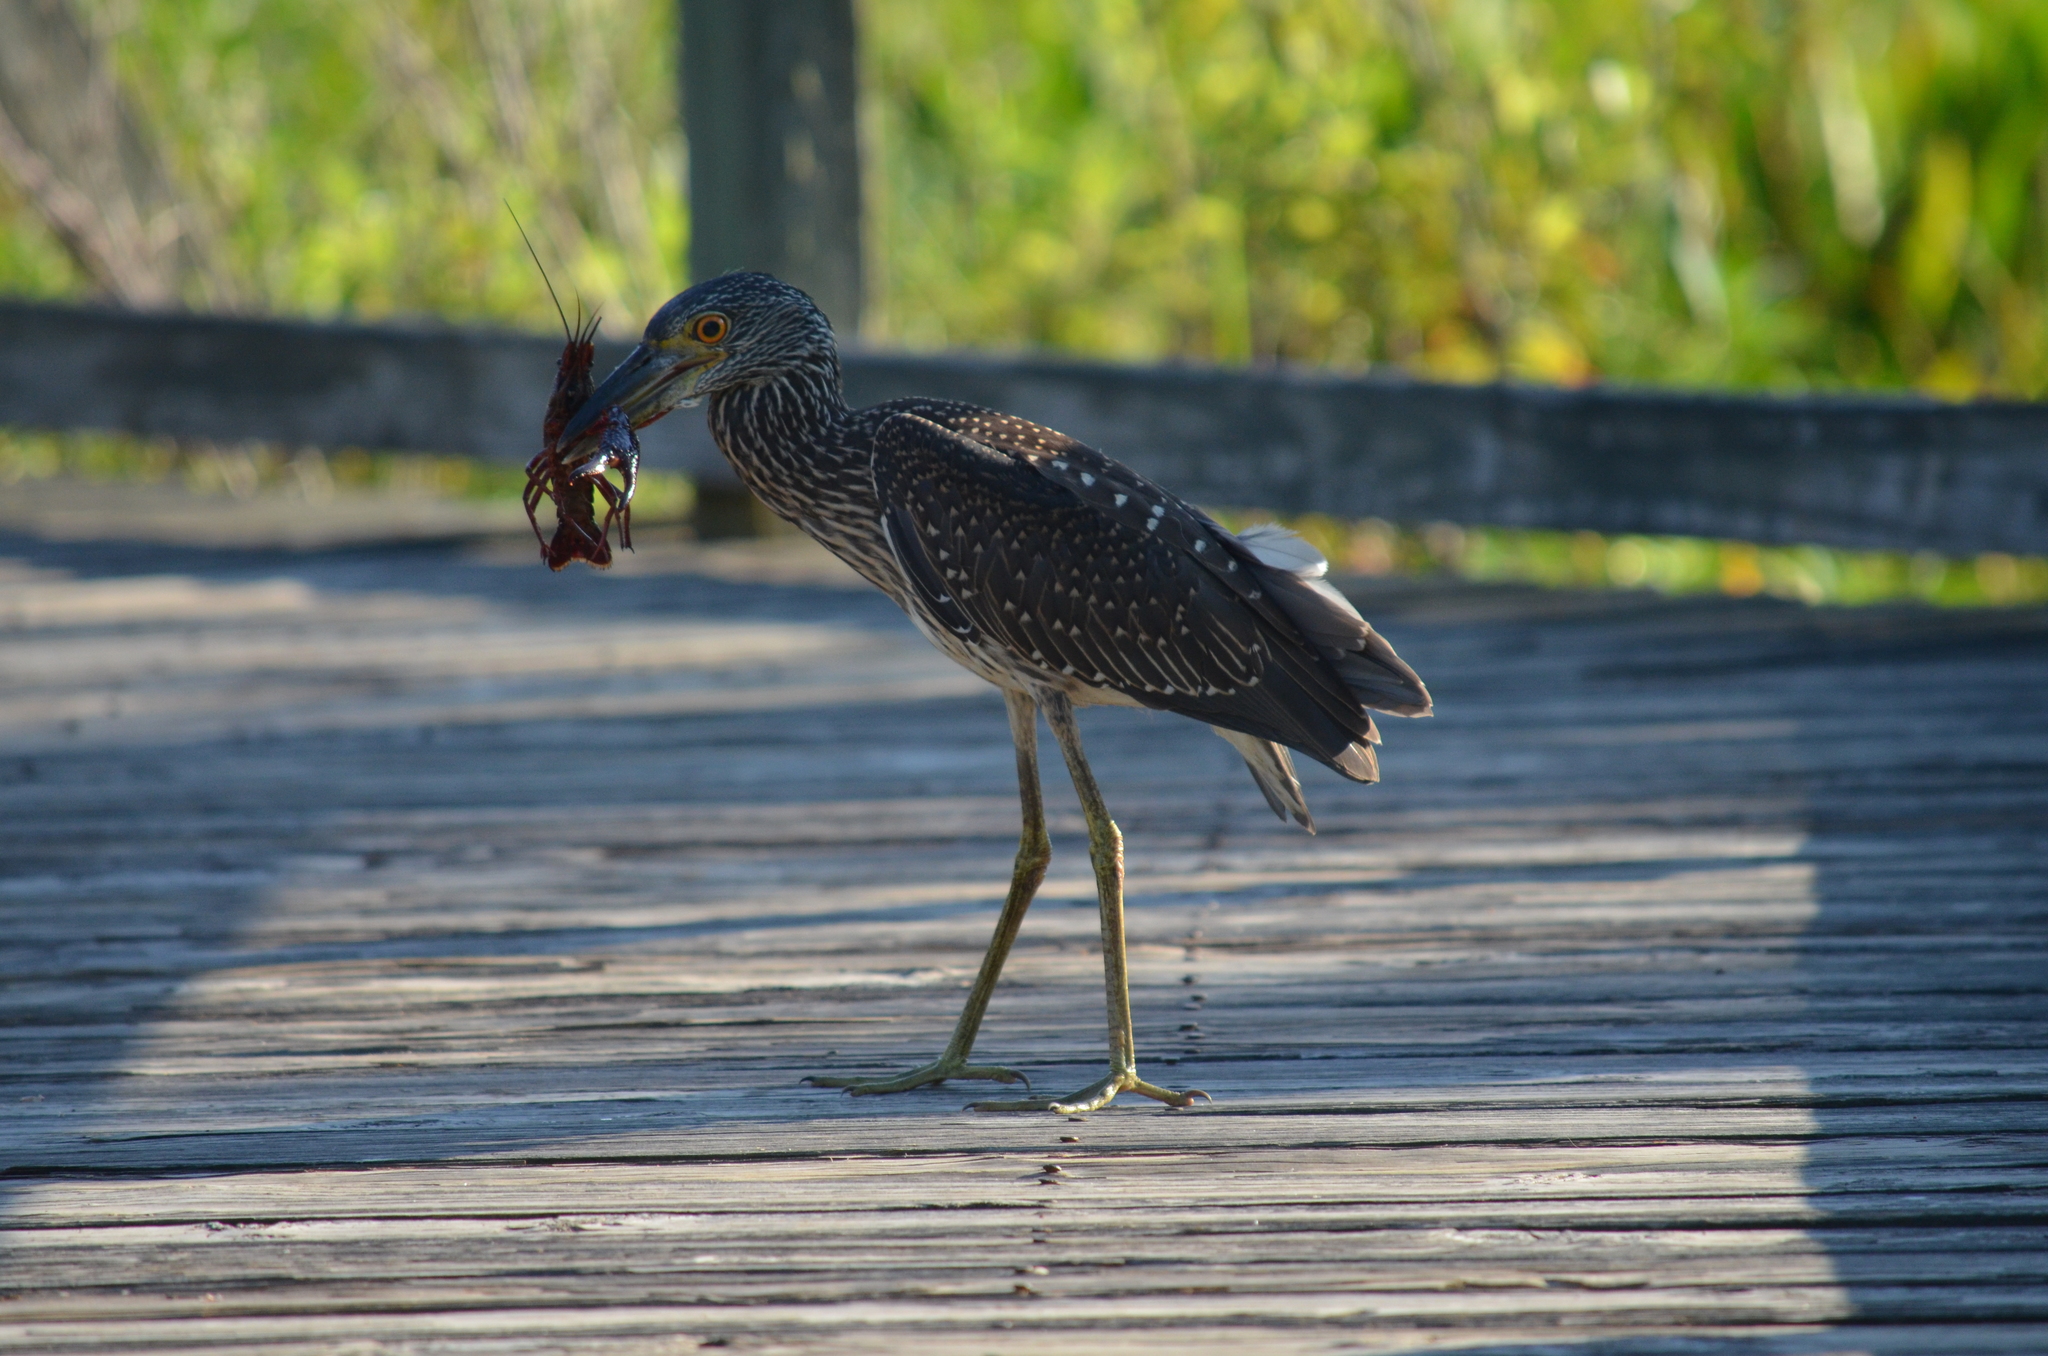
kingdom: Animalia
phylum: Chordata
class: Aves
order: Pelecaniformes
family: Ardeidae
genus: Nyctanassa
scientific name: Nyctanassa violacea
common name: Yellow-crowned night heron
